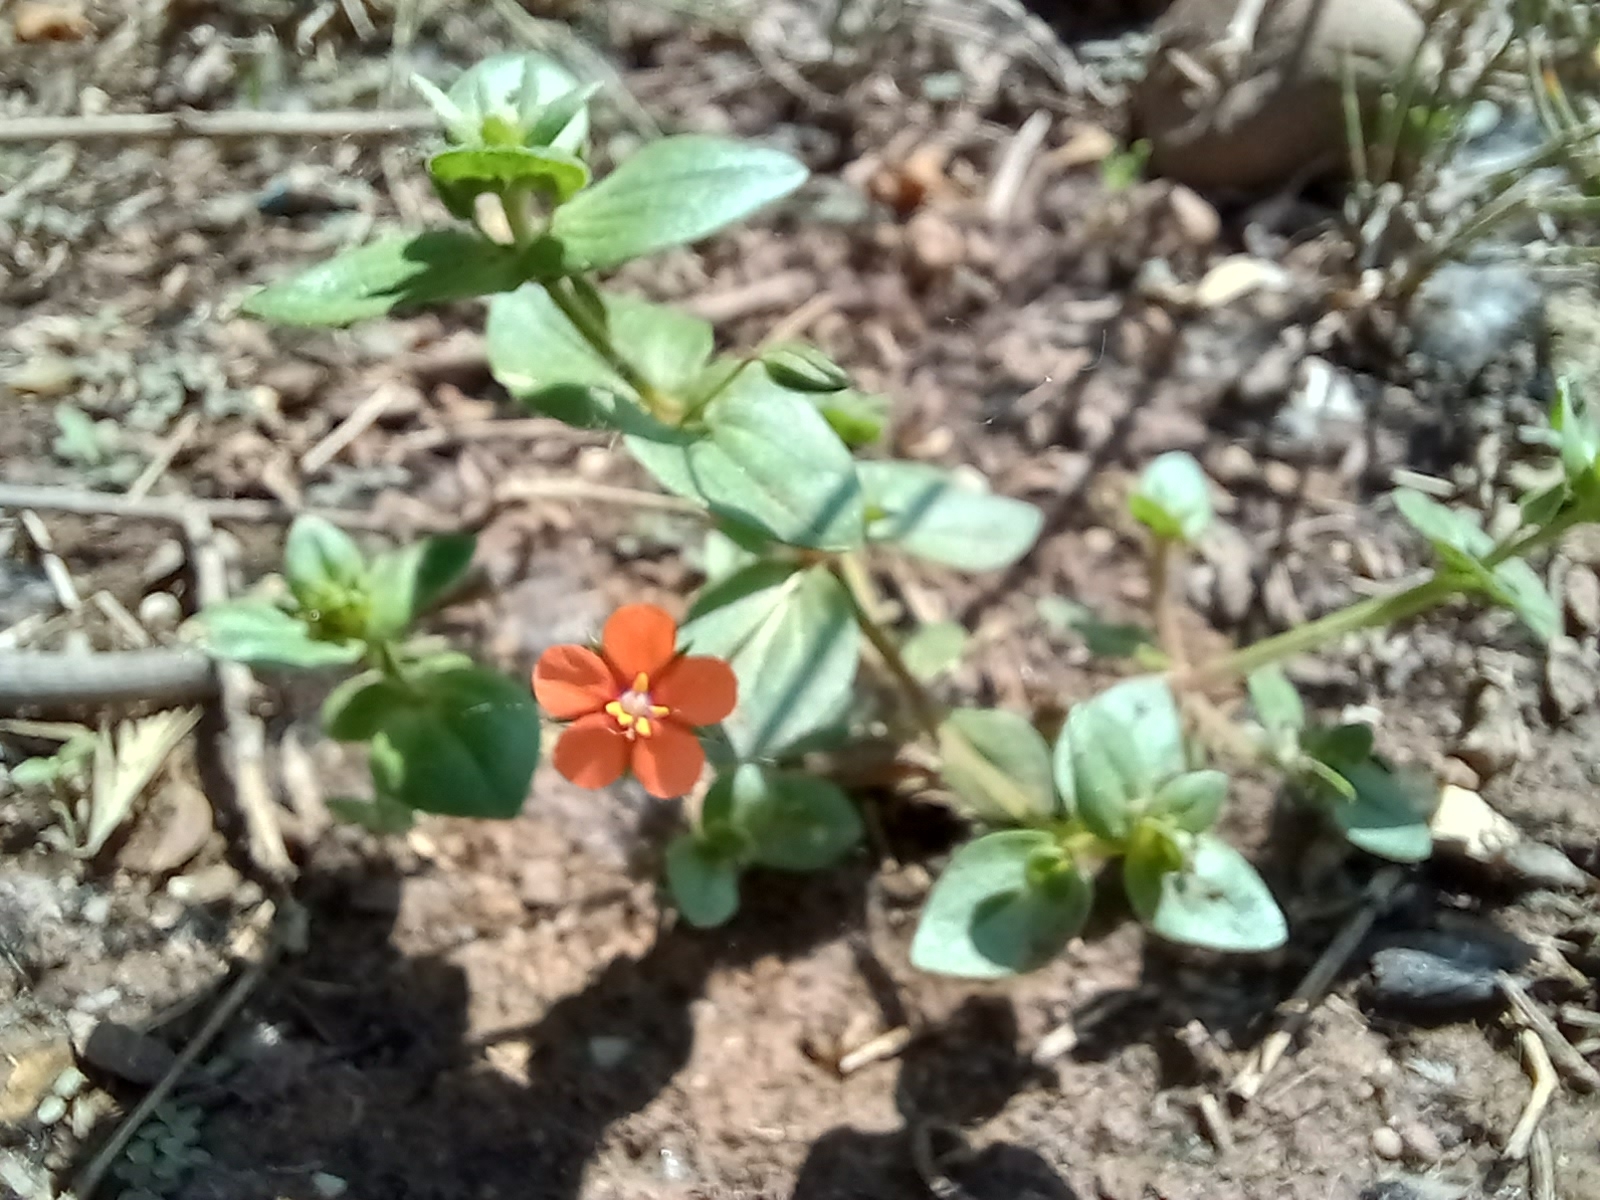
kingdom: Plantae
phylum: Tracheophyta
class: Magnoliopsida
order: Ericales
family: Primulaceae
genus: Lysimachia
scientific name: Lysimachia arvensis
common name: Scarlet pimpernel
